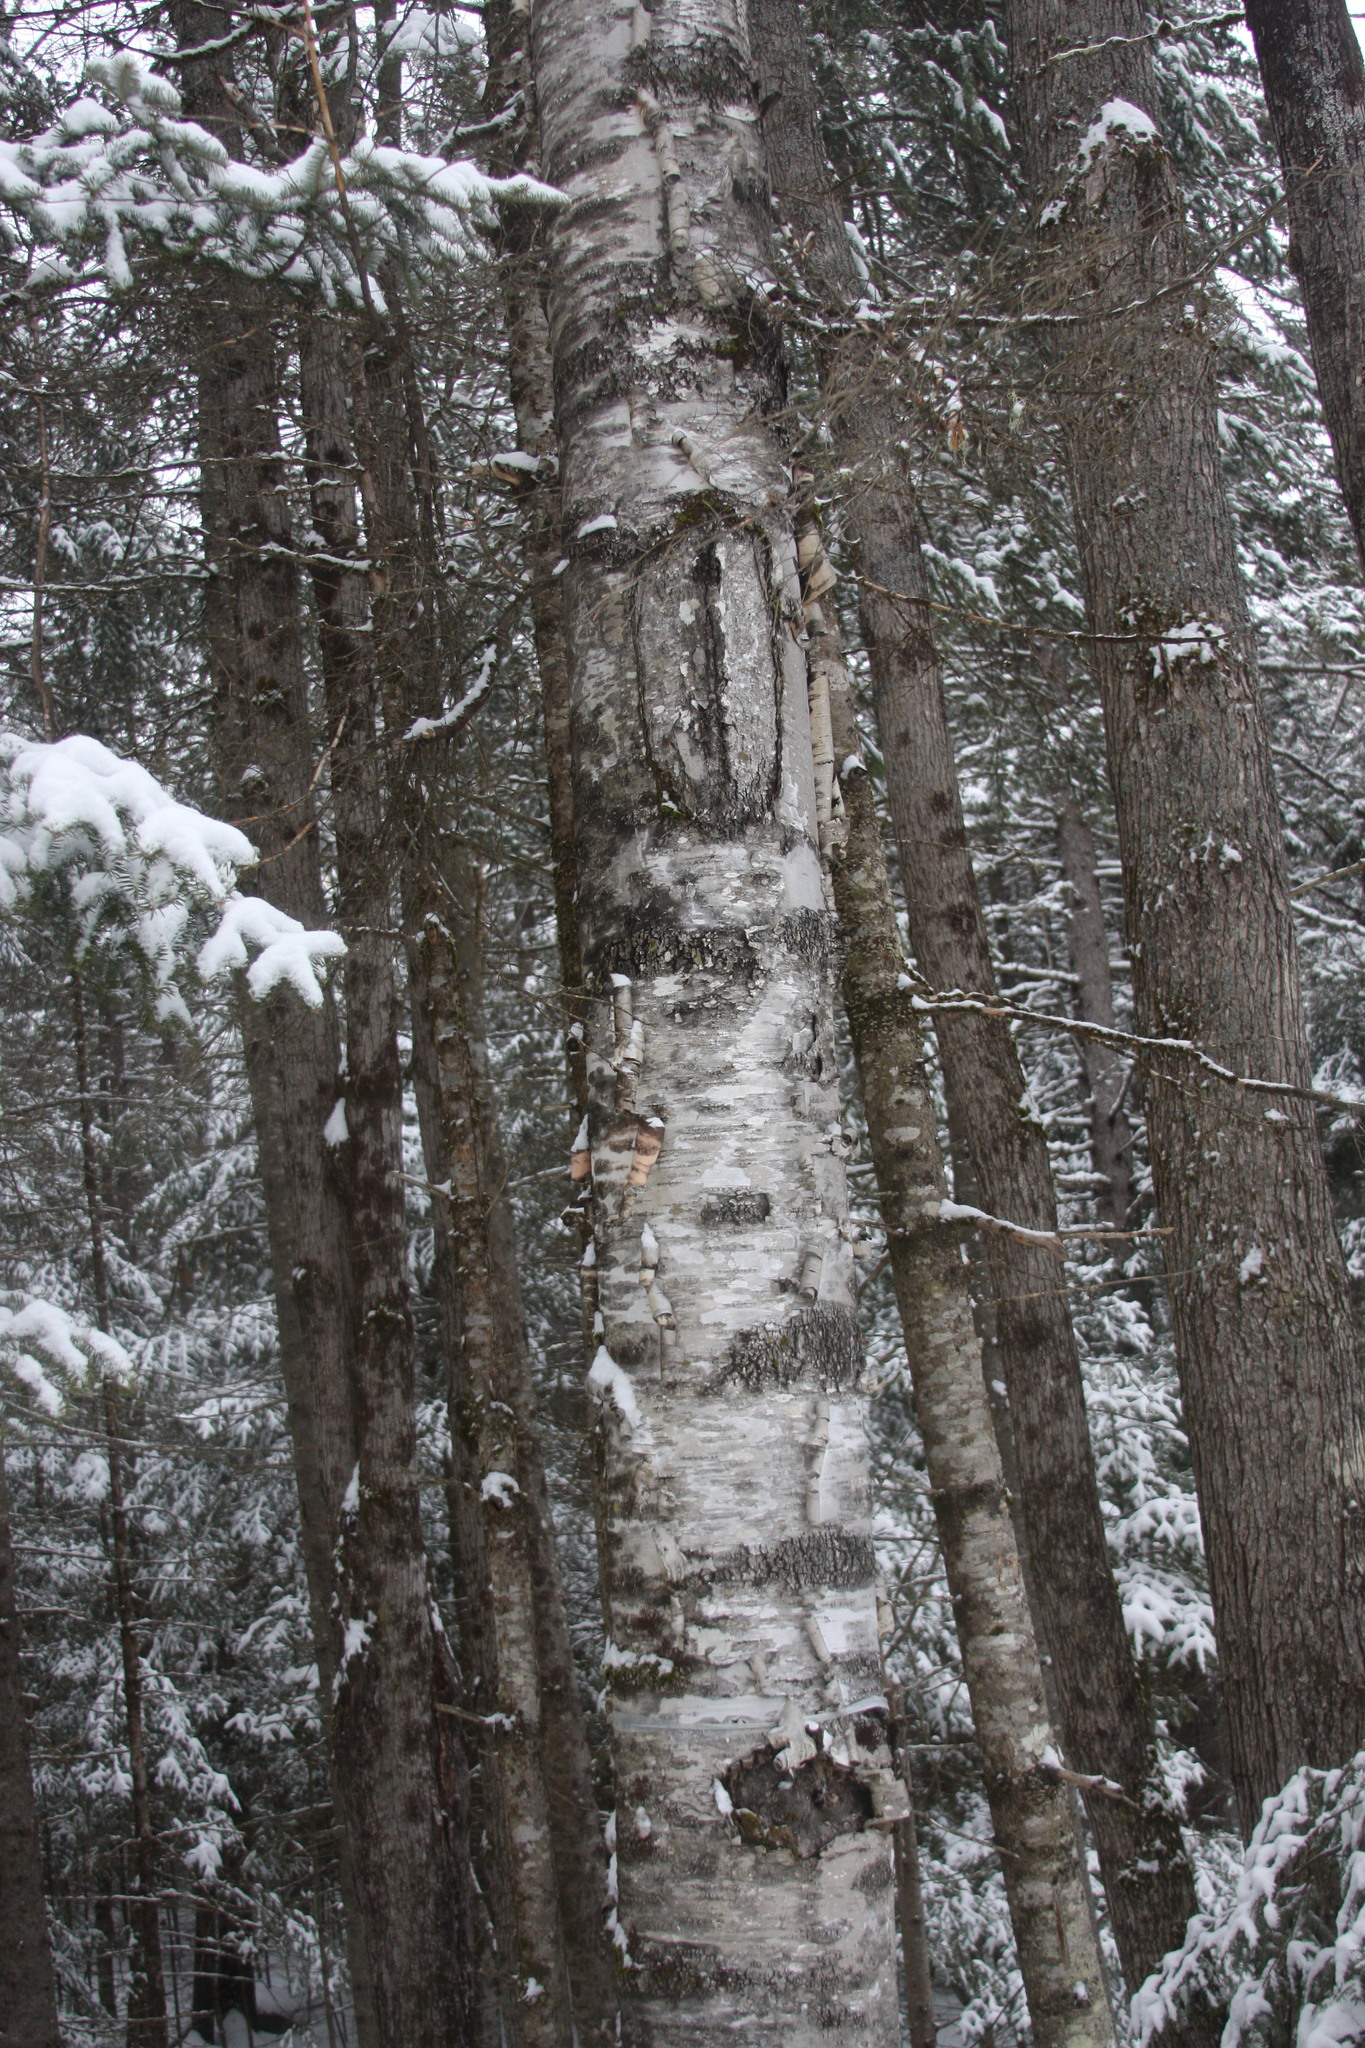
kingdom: Plantae
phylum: Tracheophyta
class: Magnoliopsida
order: Fagales
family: Betulaceae
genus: Betula
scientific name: Betula papyrifera
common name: Paper birch
